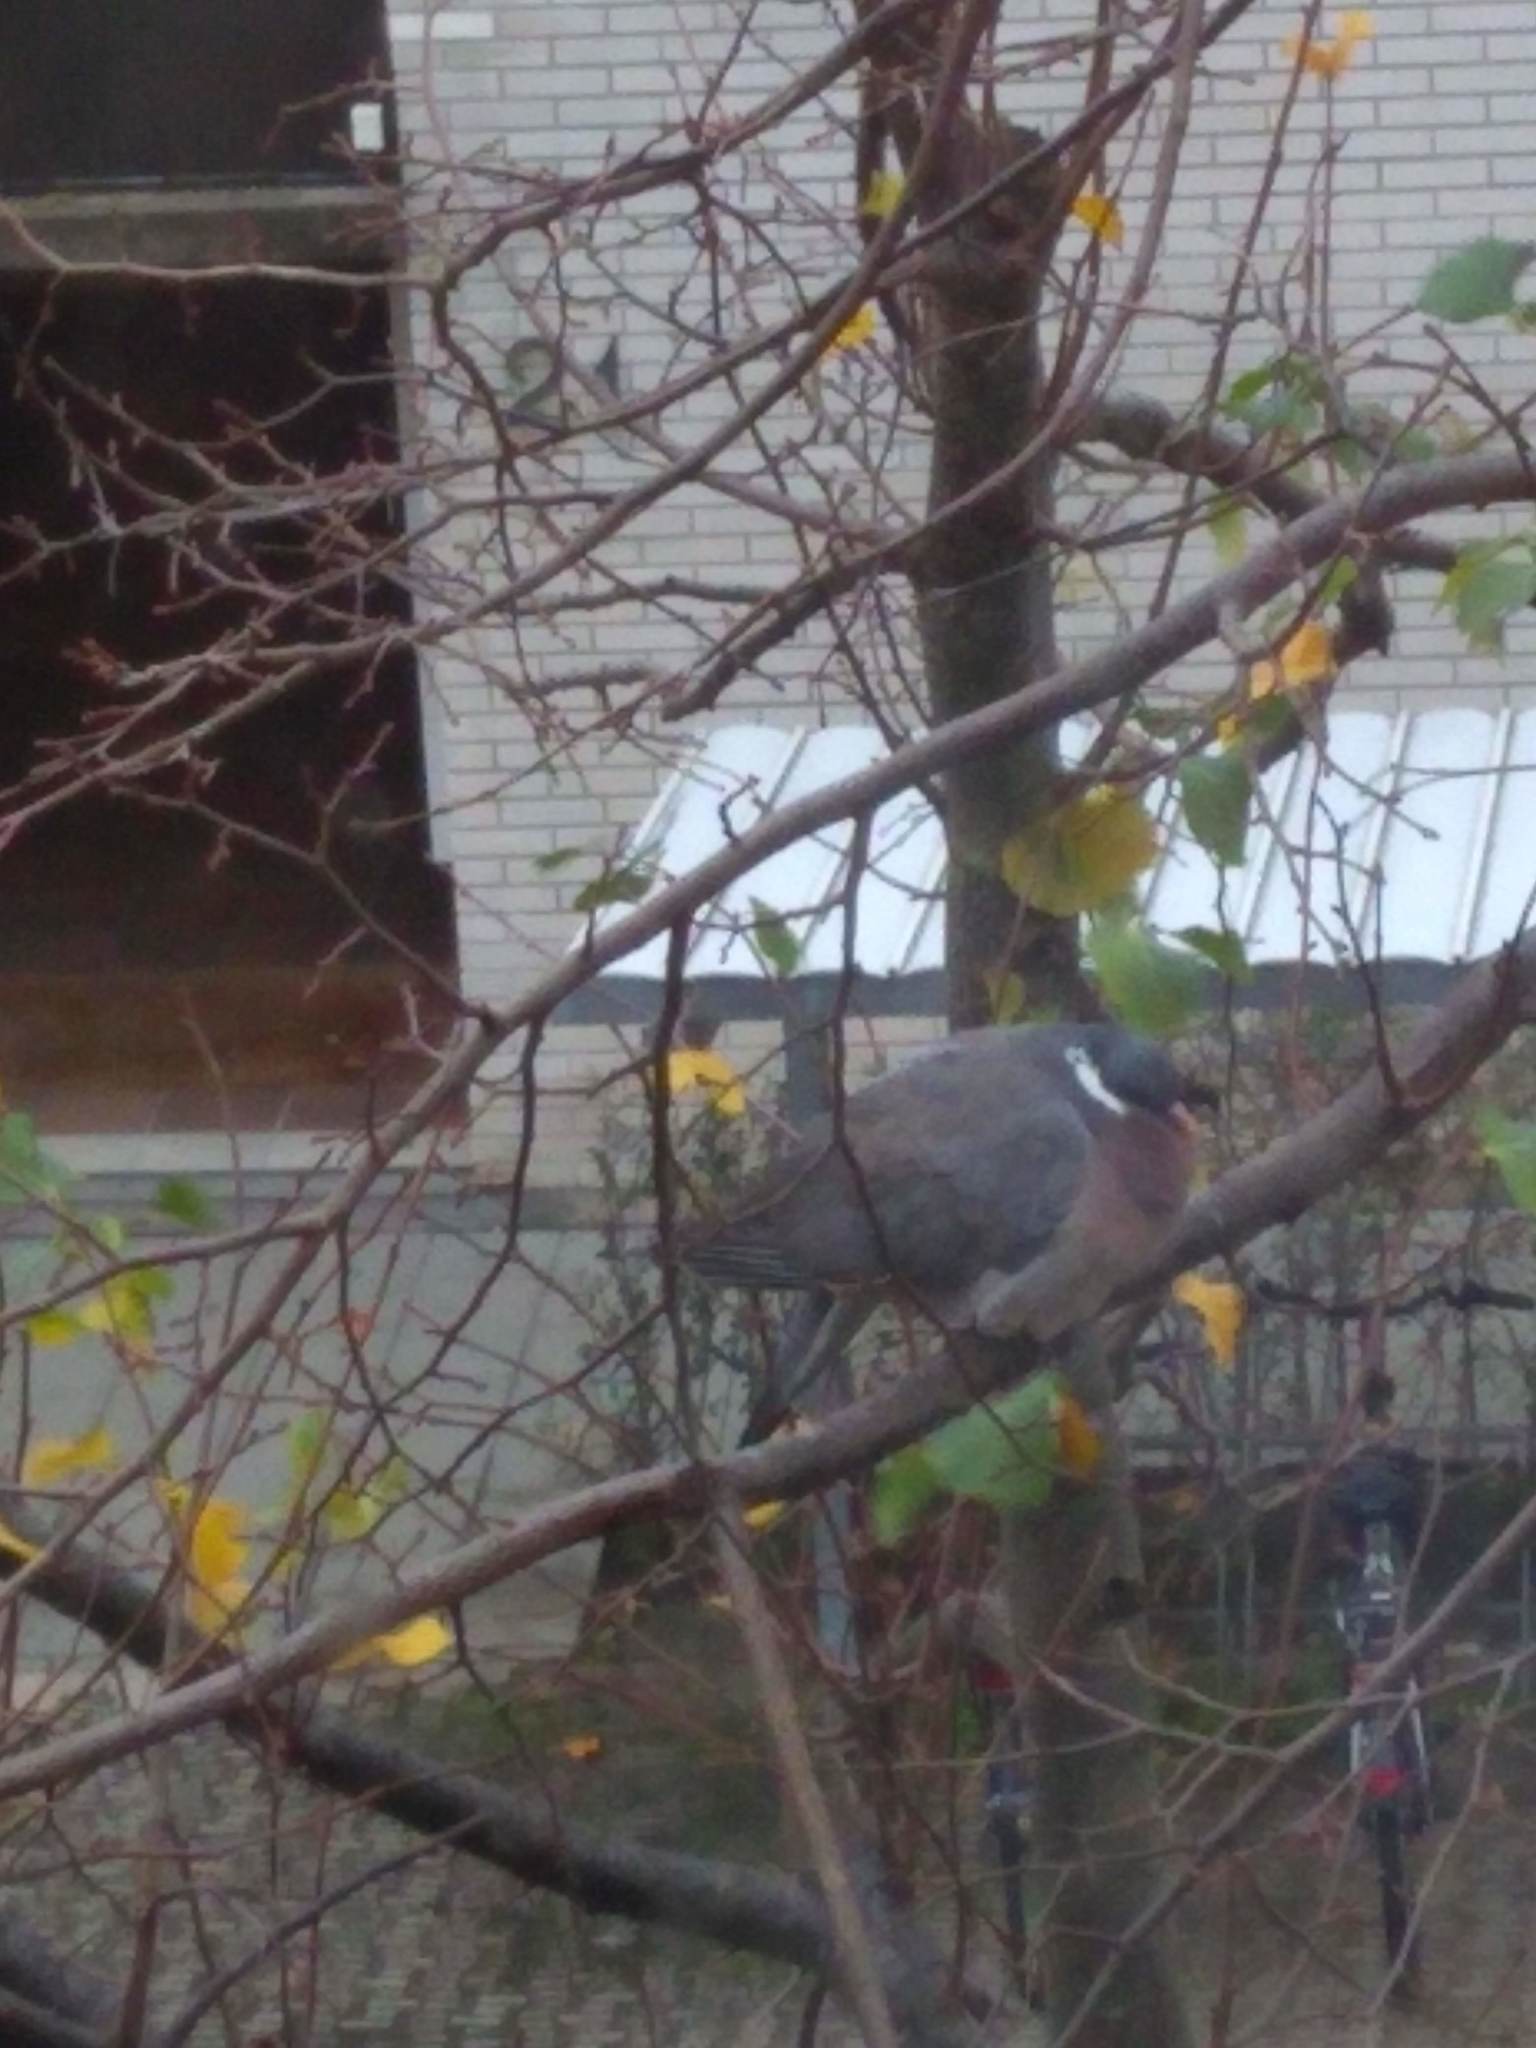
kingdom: Animalia
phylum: Chordata
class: Aves
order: Columbiformes
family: Columbidae
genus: Columba
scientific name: Columba palumbus
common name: Common wood pigeon
